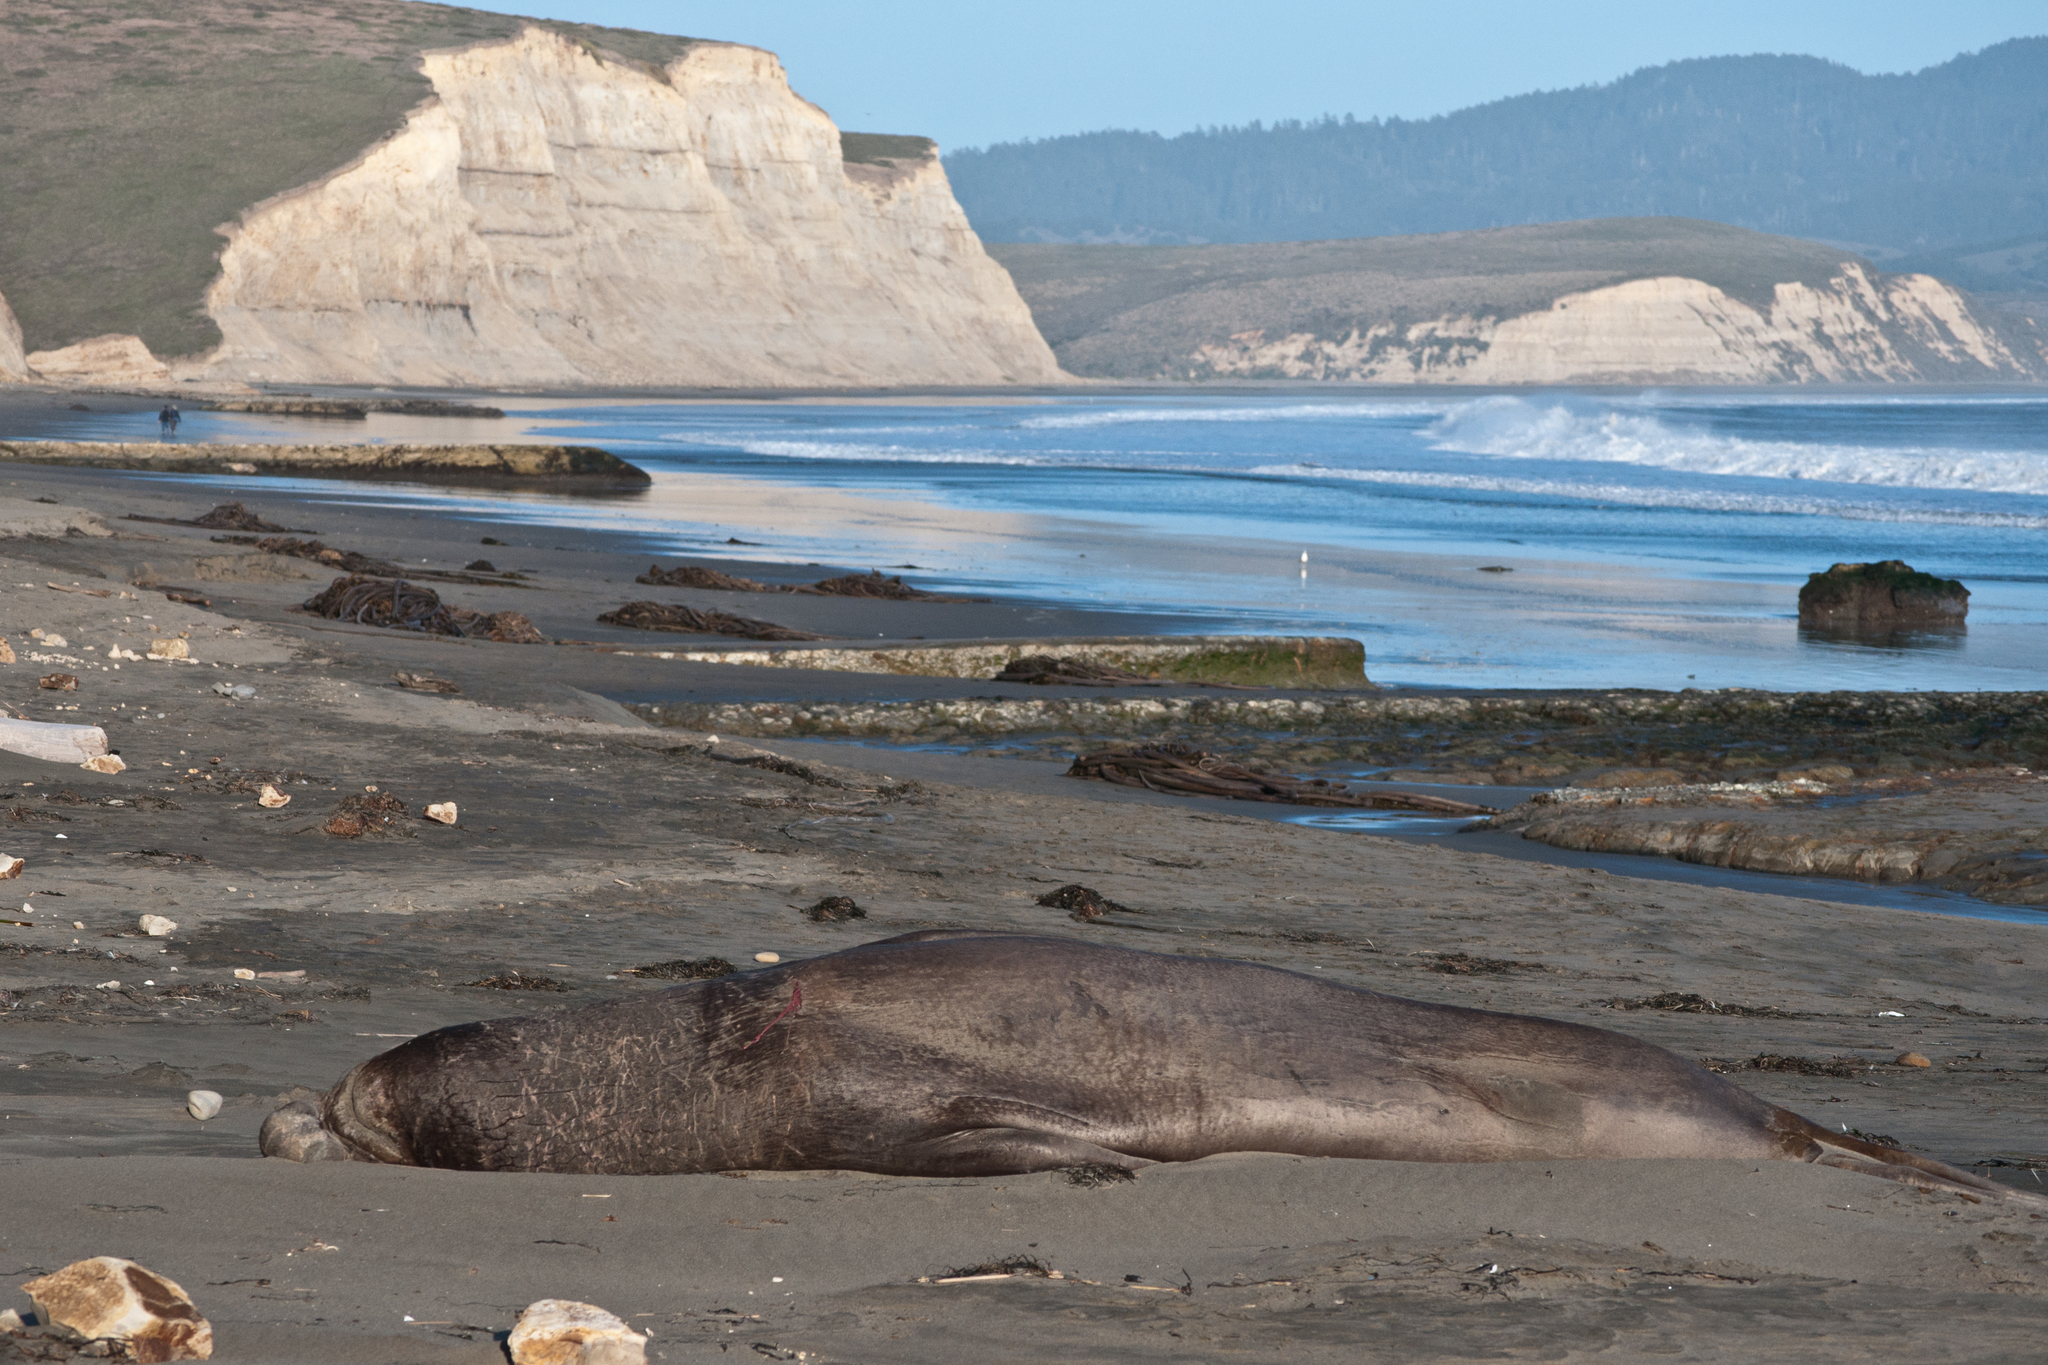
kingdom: Animalia
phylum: Chordata
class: Mammalia
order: Carnivora
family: Phocidae
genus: Mirounga
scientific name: Mirounga angustirostris
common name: Northern elephant seal
